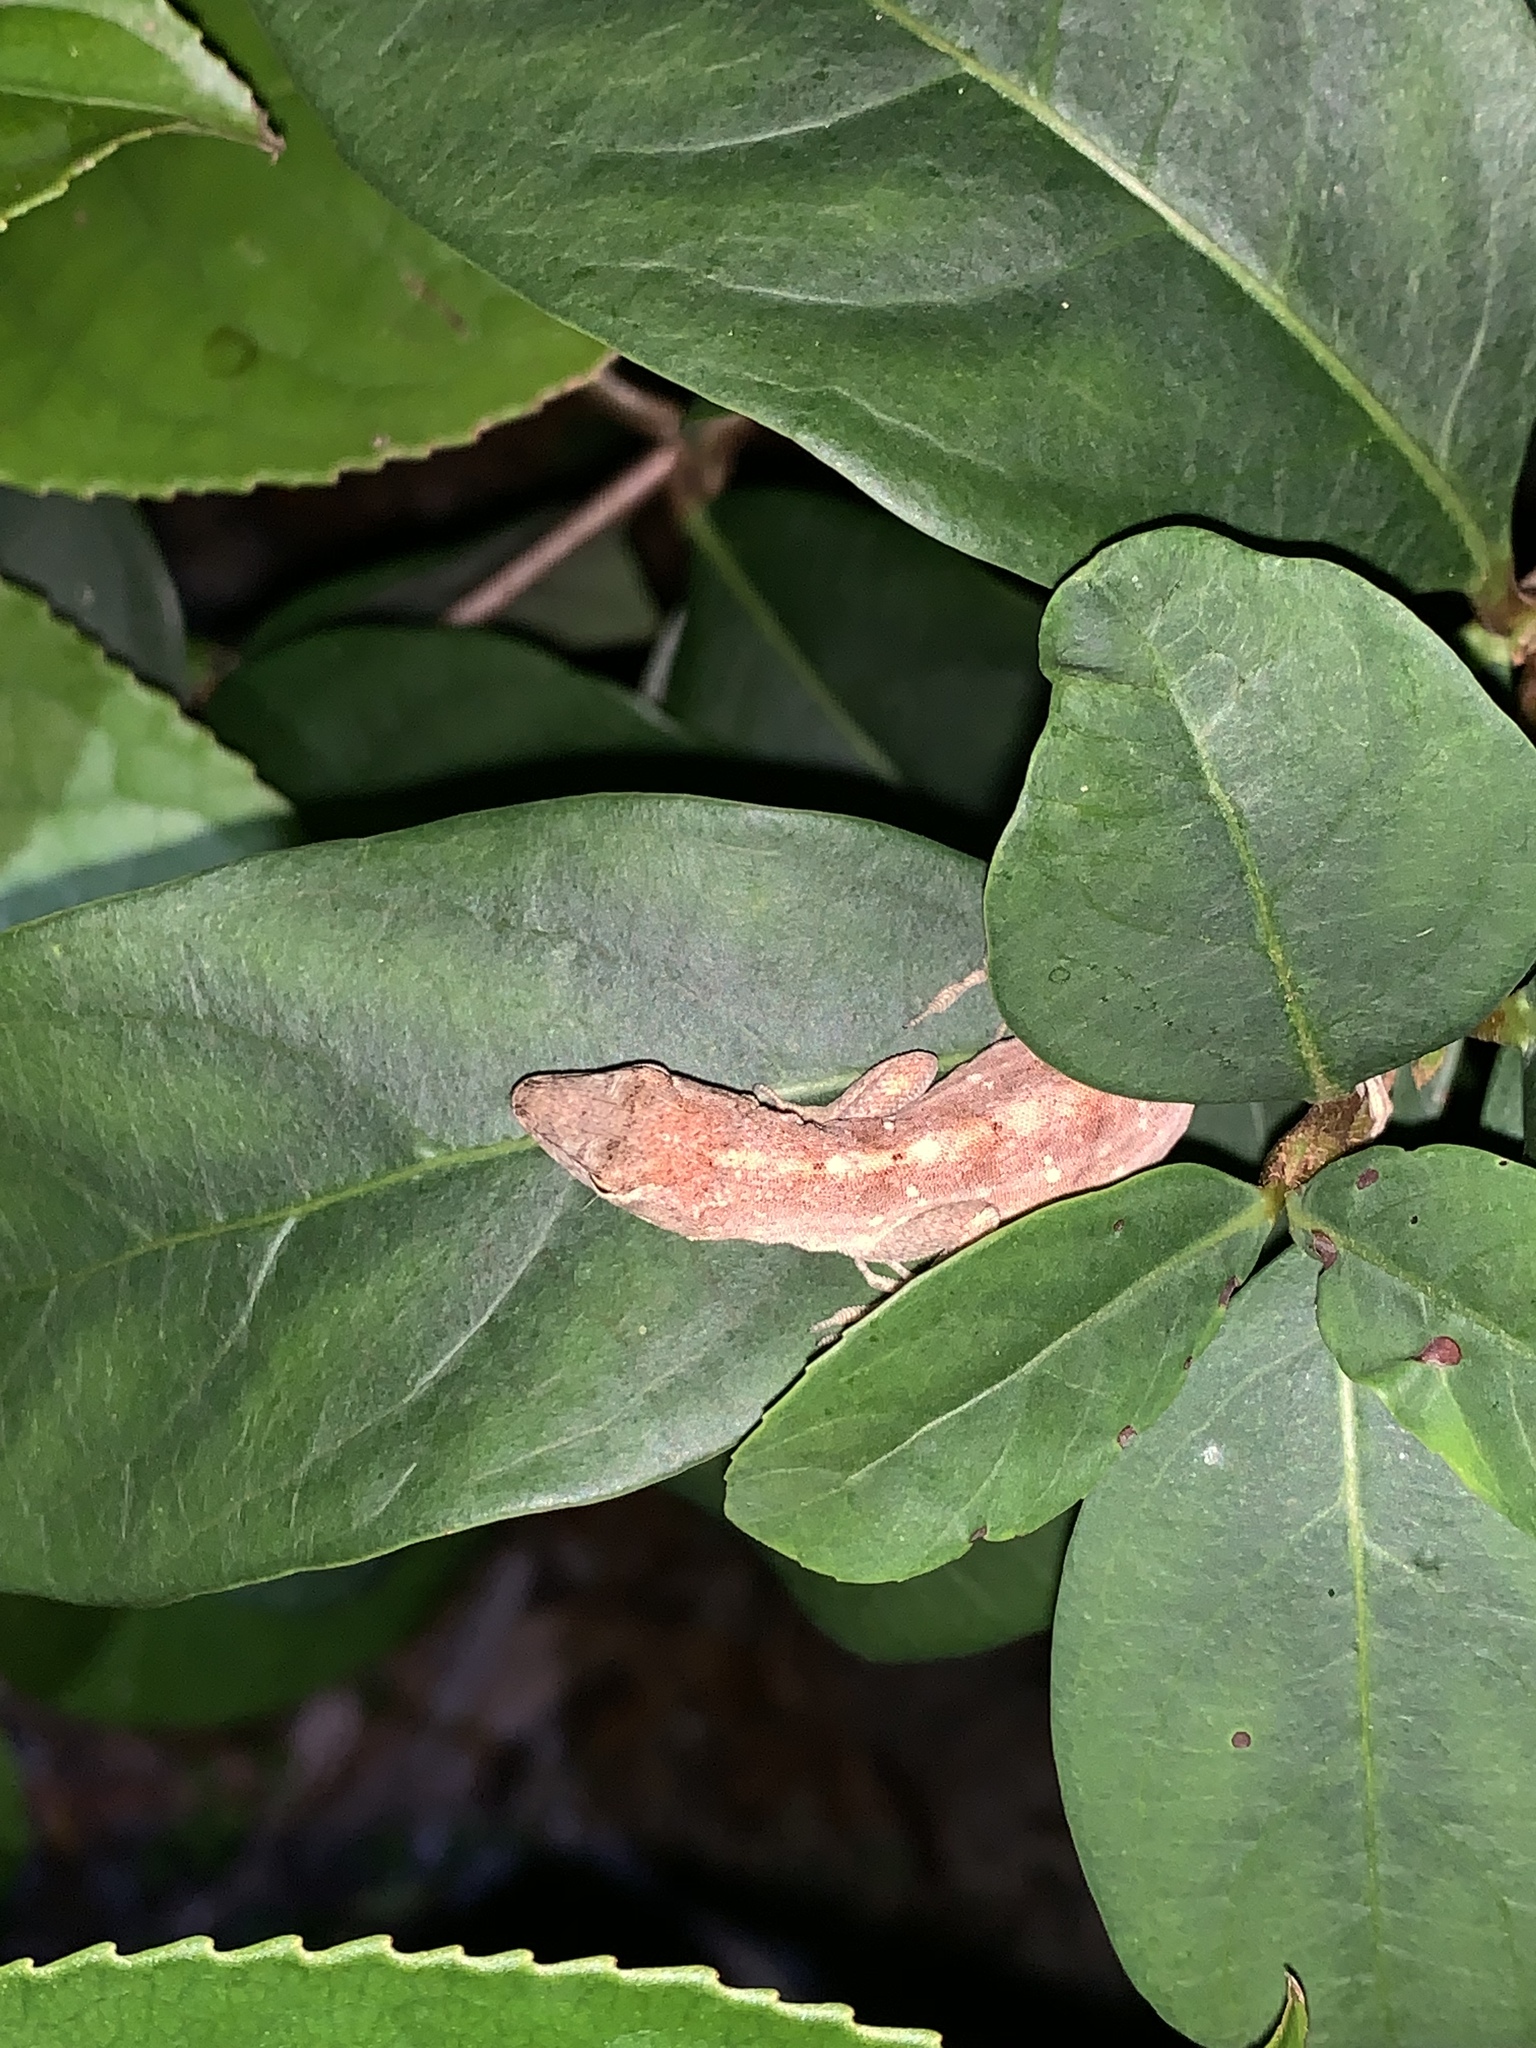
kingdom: Animalia
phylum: Chordata
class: Squamata
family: Dactyloidae
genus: Anolis
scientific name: Anolis sagrei
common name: Brown anole
